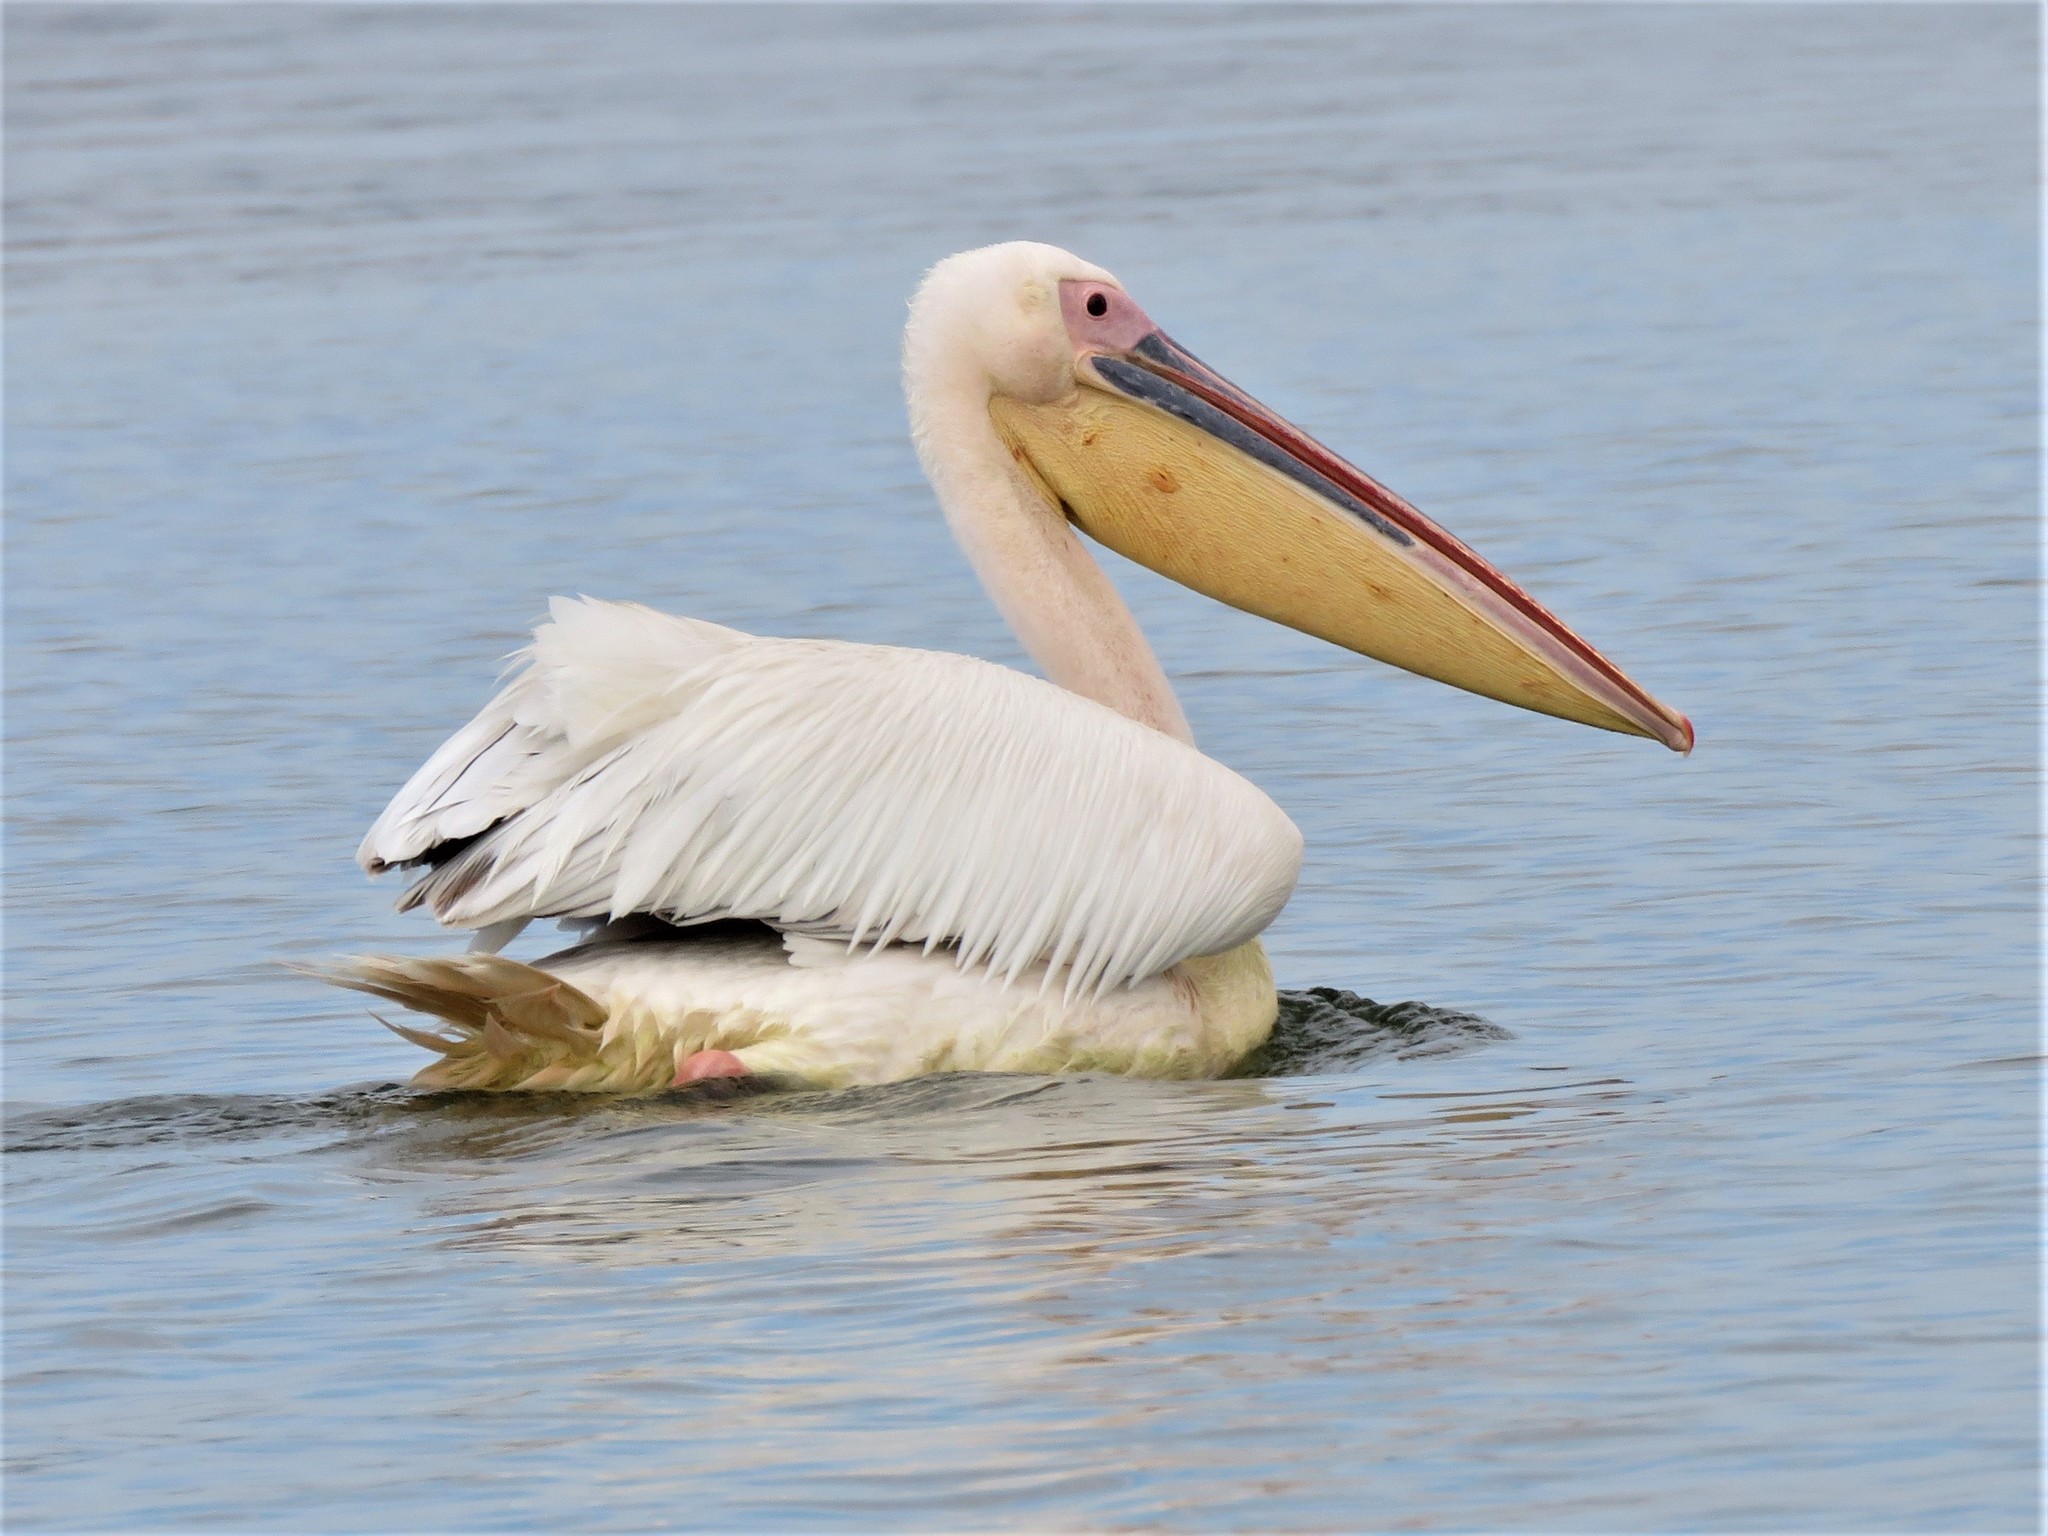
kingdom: Animalia
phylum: Chordata
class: Aves
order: Pelecaniformes
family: Pelecanidae
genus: Pelecanus
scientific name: Pelecanus onocrotalus
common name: Great white pelican
